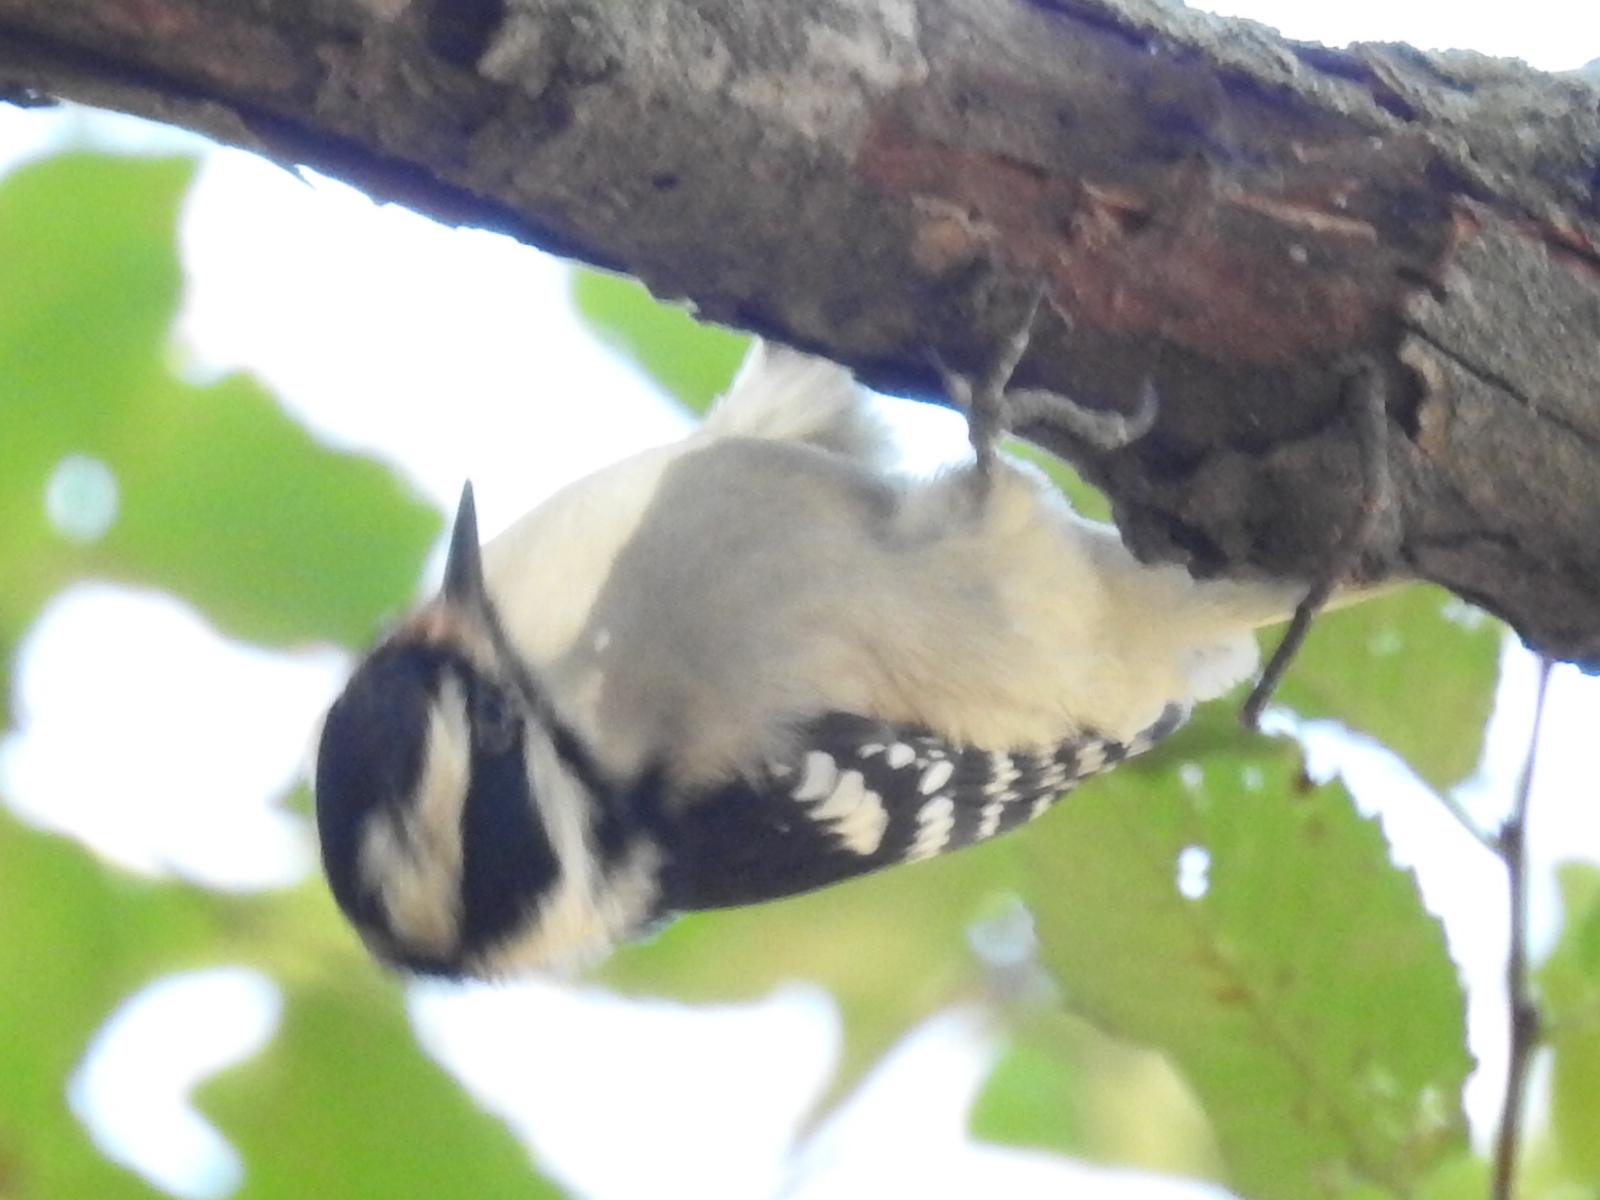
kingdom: Animalia
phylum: Chordata
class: Aves
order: Piciformes
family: Picidae
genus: Dryobates
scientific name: Dryobates pubescens
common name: Downy woodpecker
